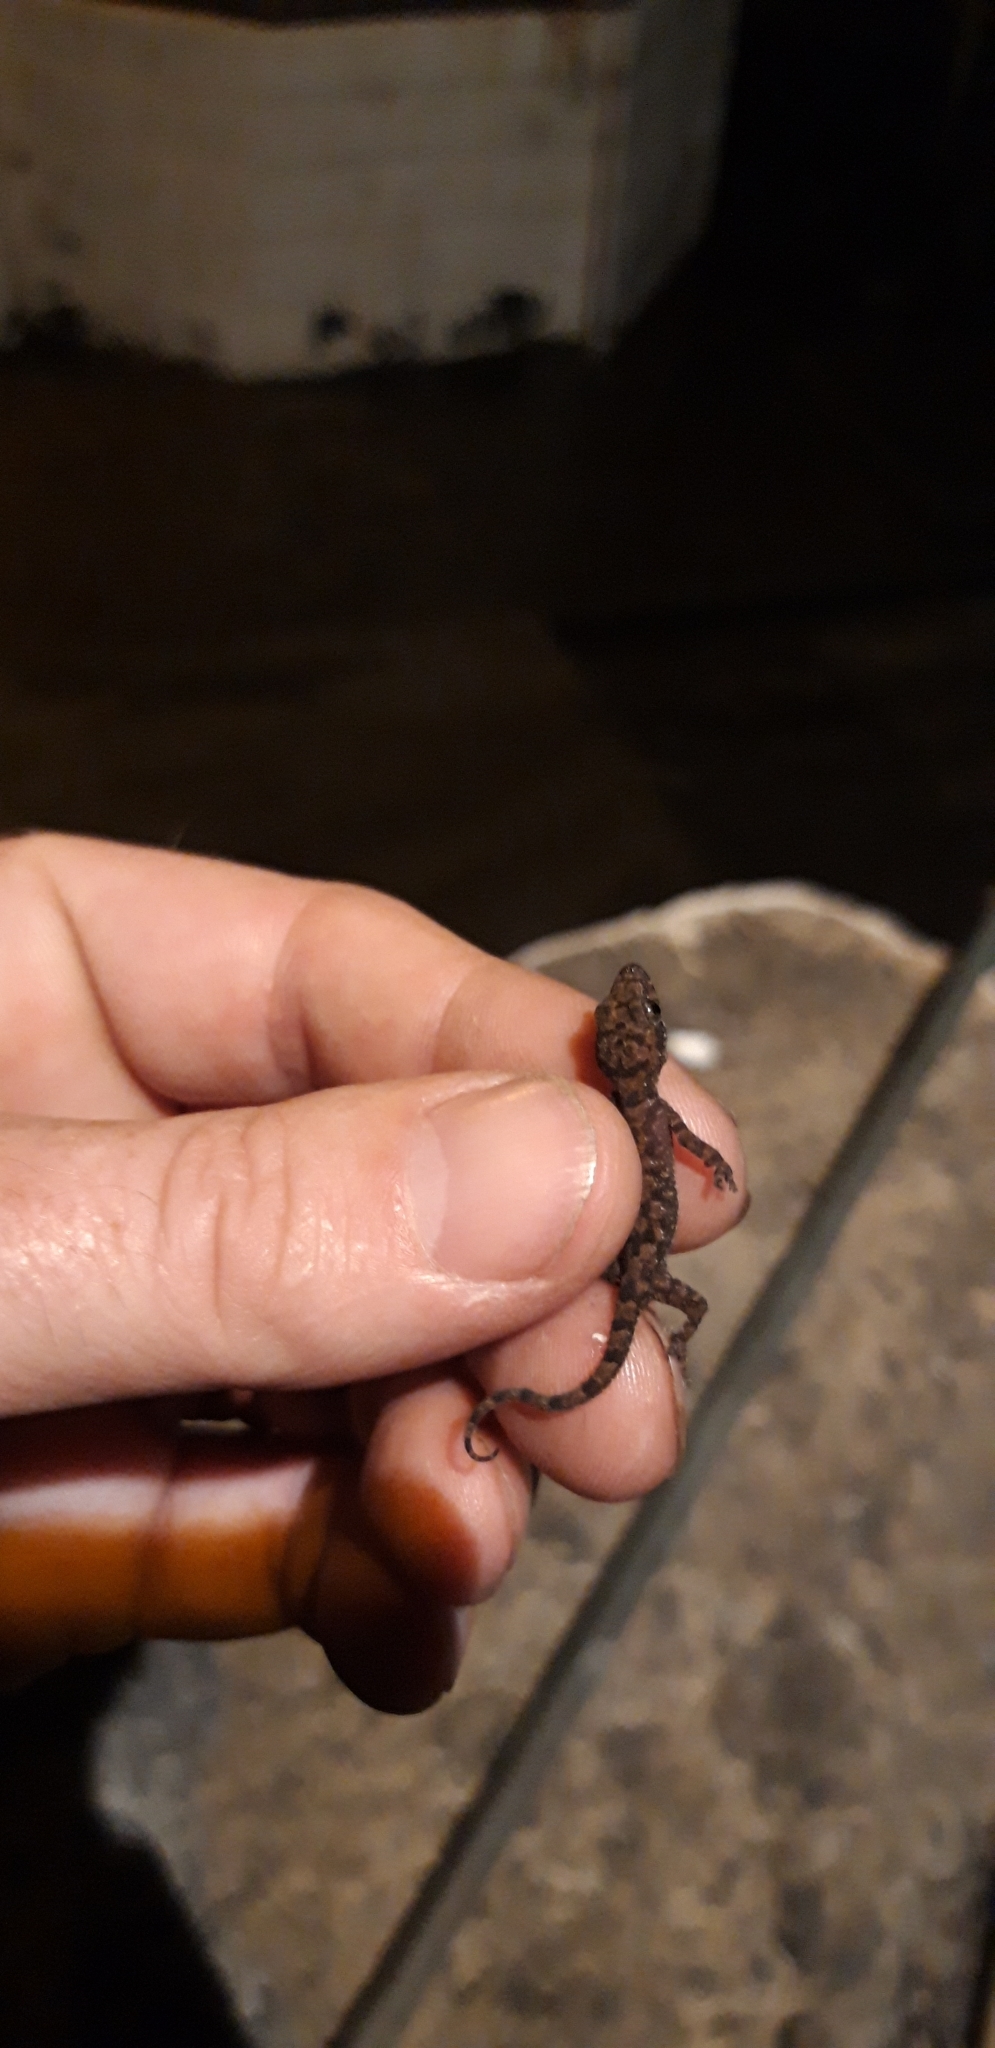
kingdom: Animalia
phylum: Chordata
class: Squamata
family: Gekkonidae
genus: Hemidactylus
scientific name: Hemidactylus mabouia
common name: House gecko
